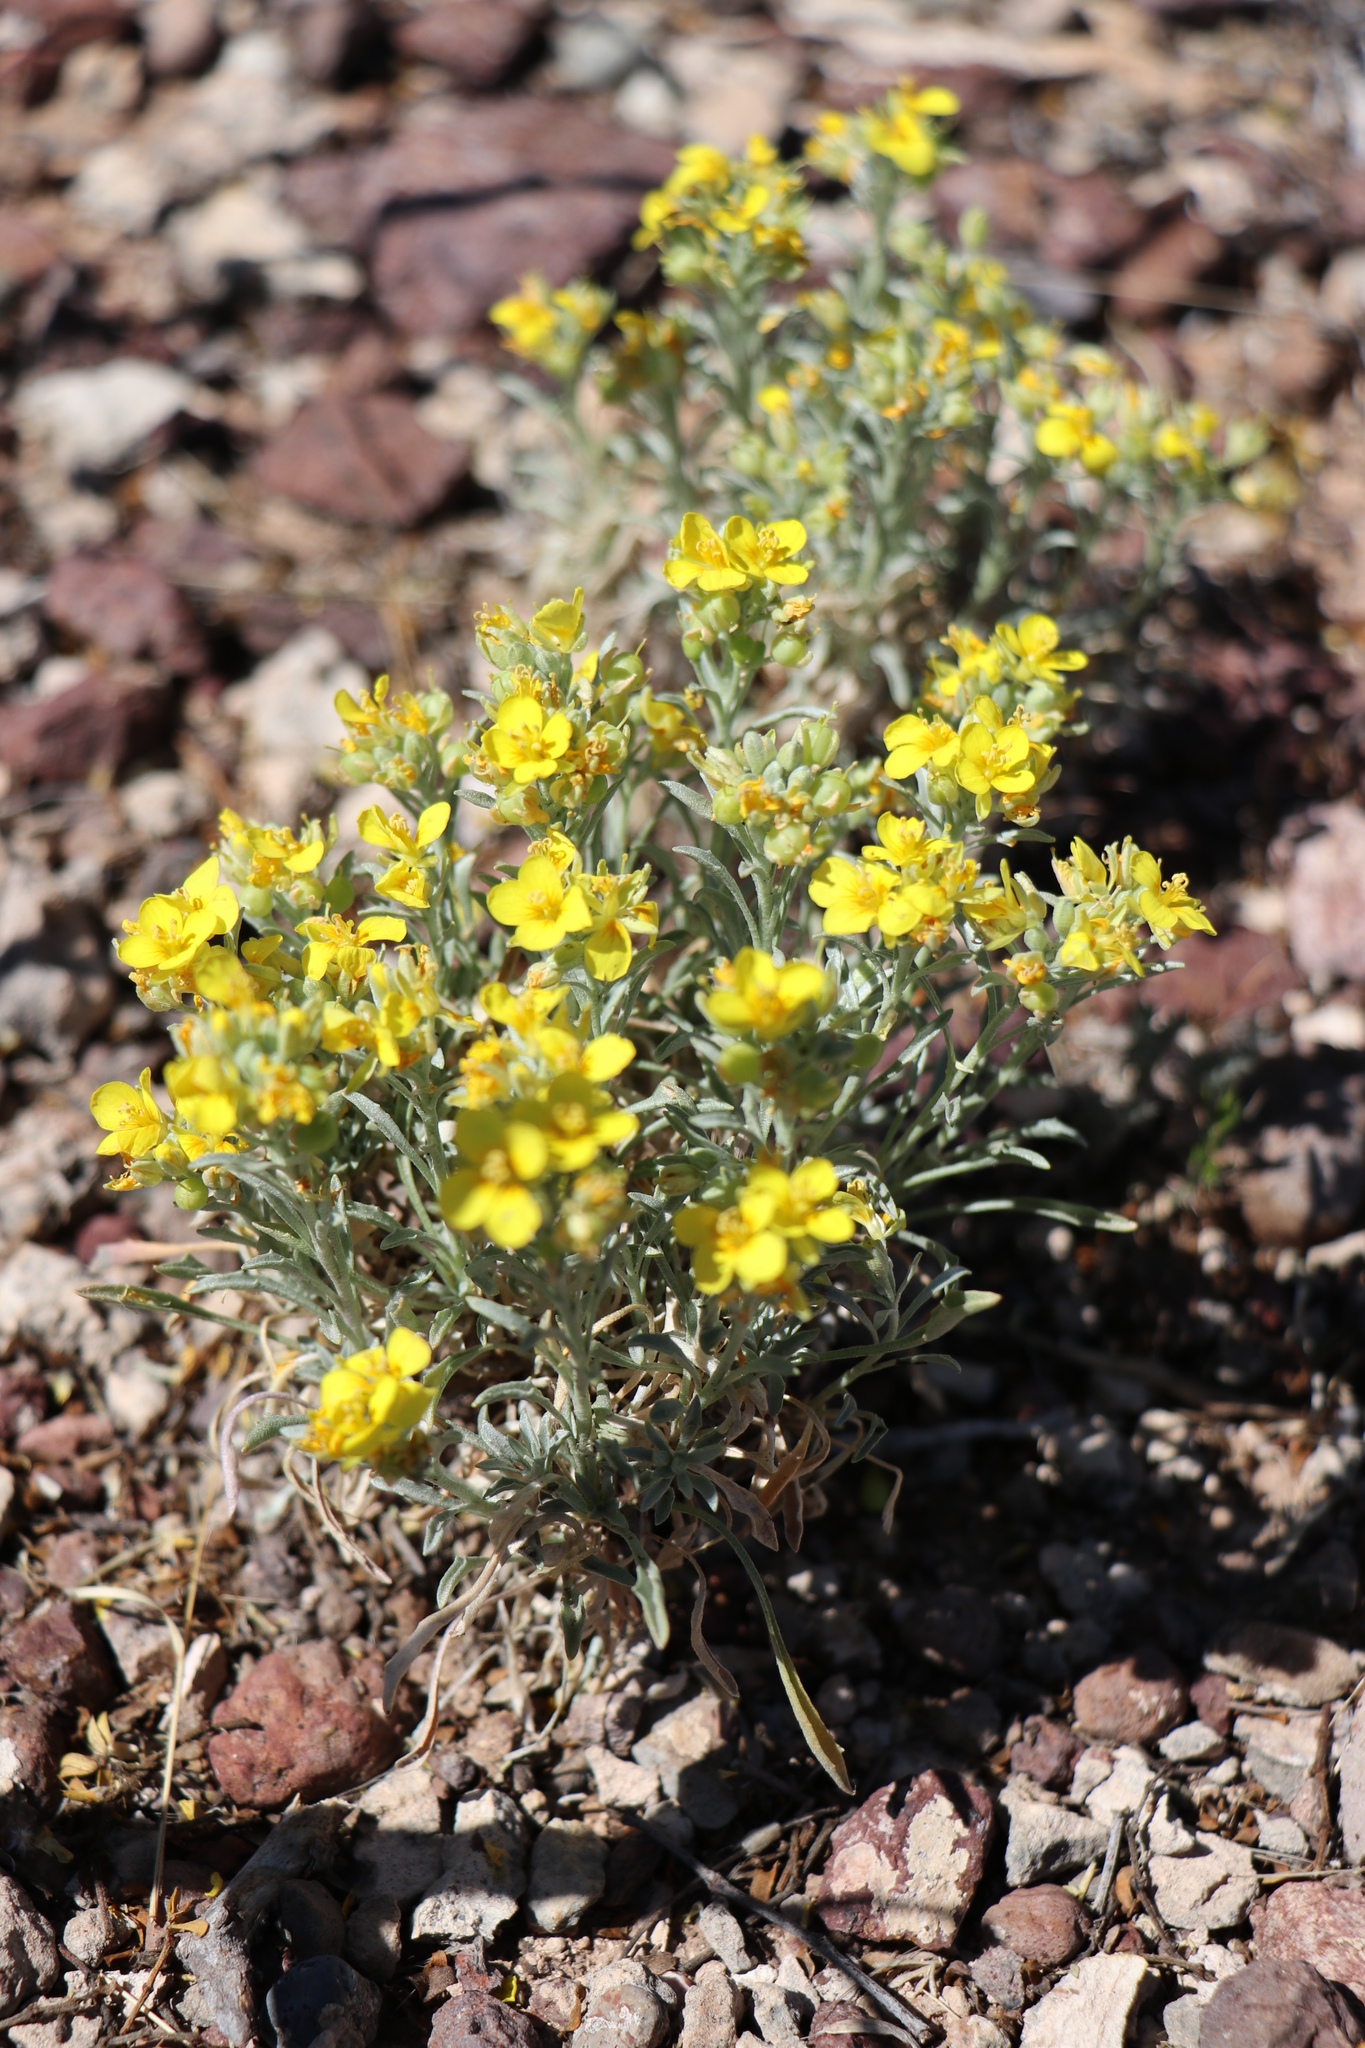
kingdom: Plantae
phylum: Tracheophyta
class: Magnoliopsida
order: Brassicales
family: Brassicaceae
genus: Physaria
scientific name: Physaria fendleri
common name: Fendler's bladderpod
